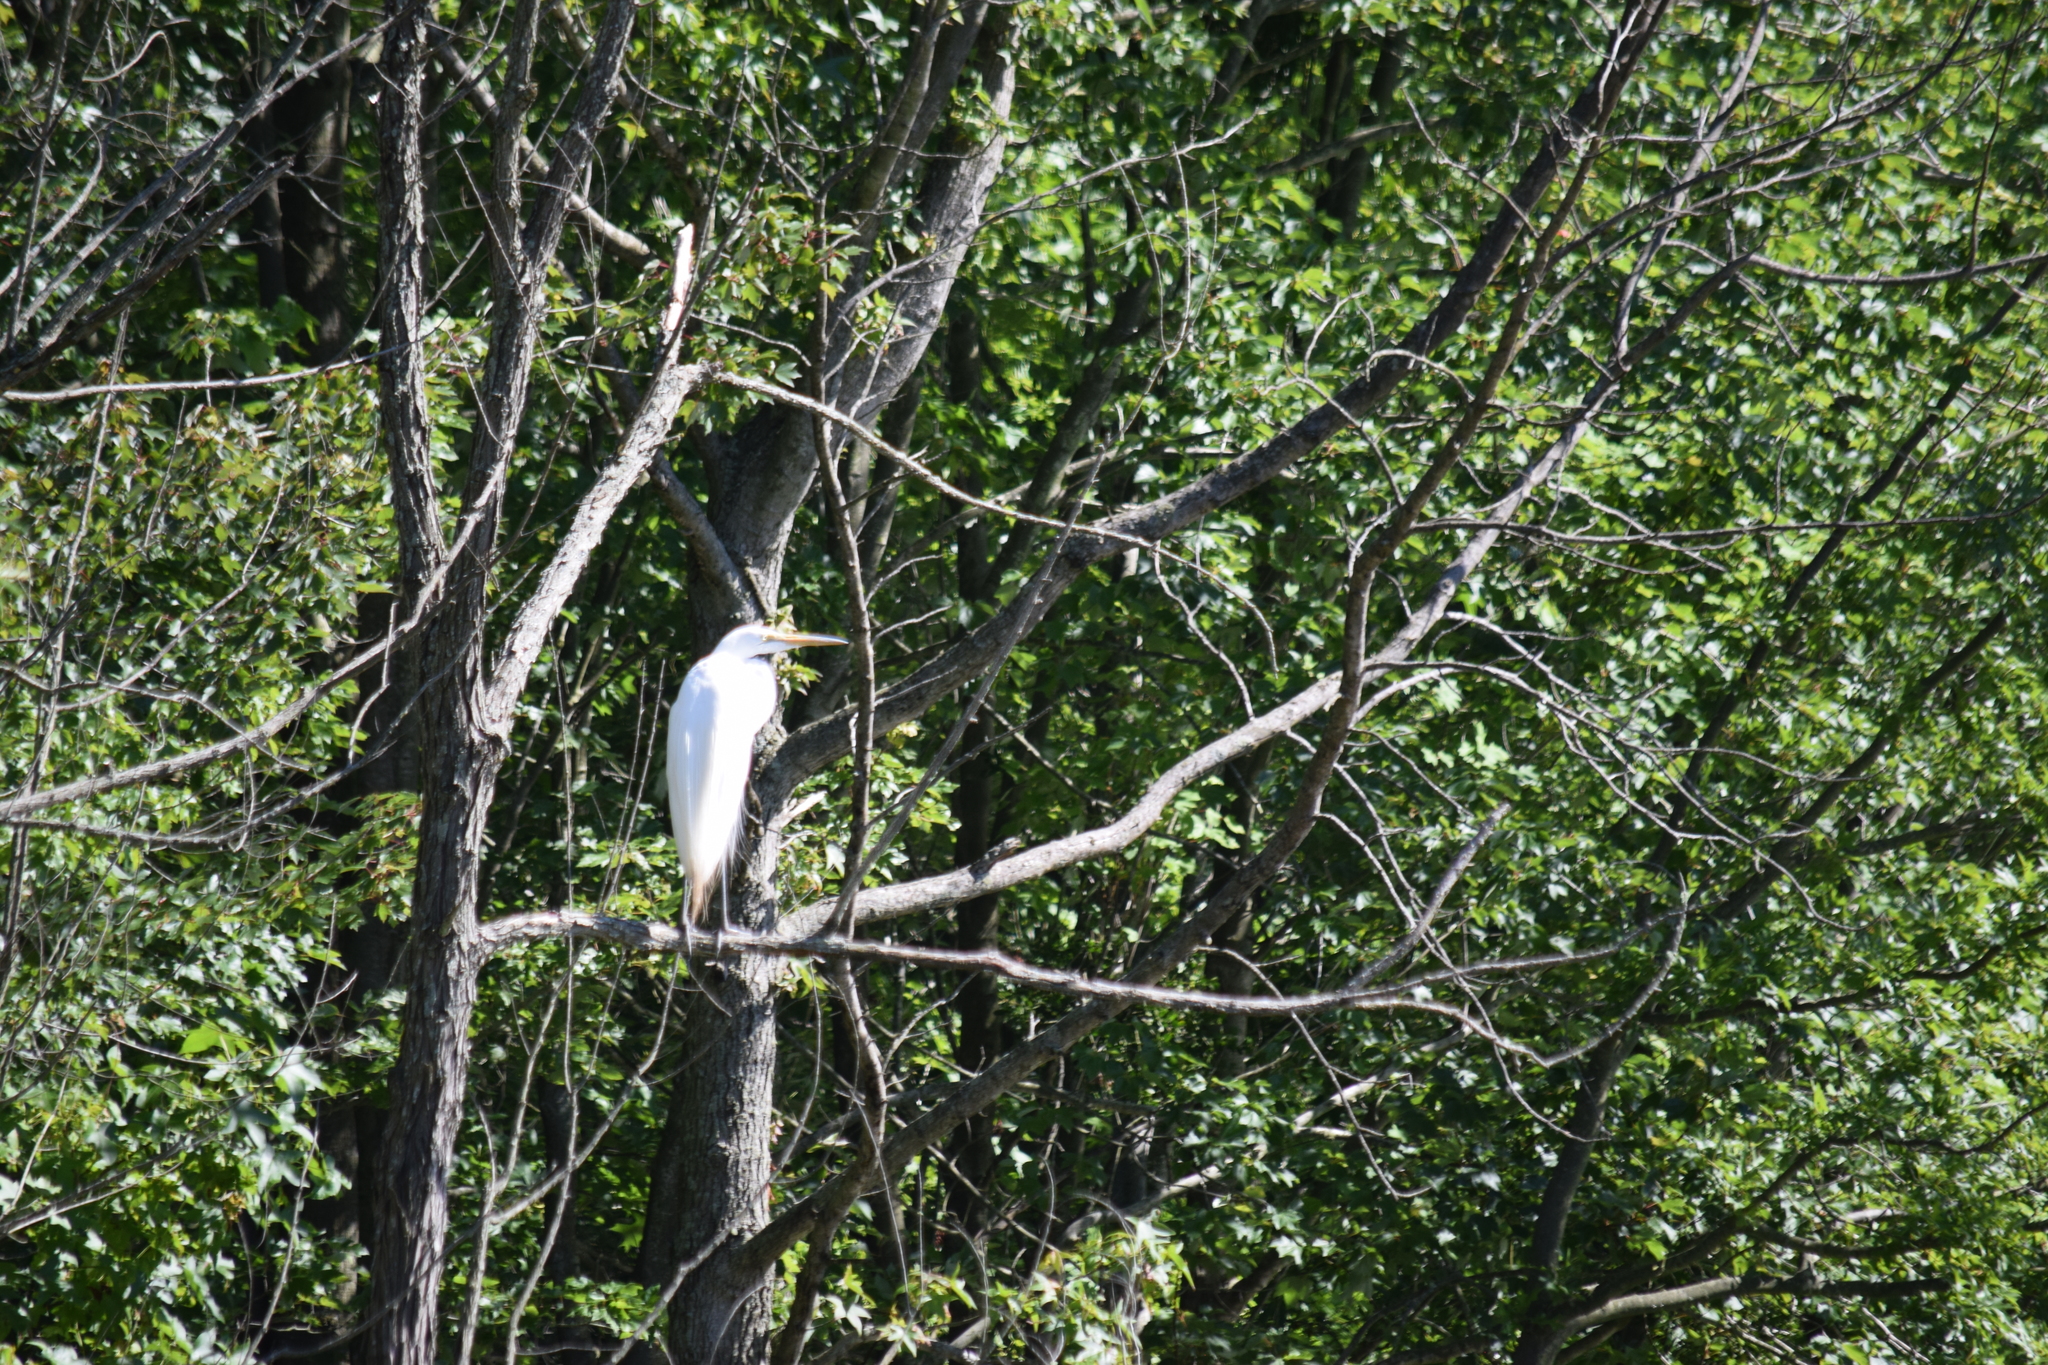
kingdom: Animalia
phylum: Chordata
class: Aves
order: Pelecaniformes
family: Ardeidae
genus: Ardea
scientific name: Ardea alba
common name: Great egret
